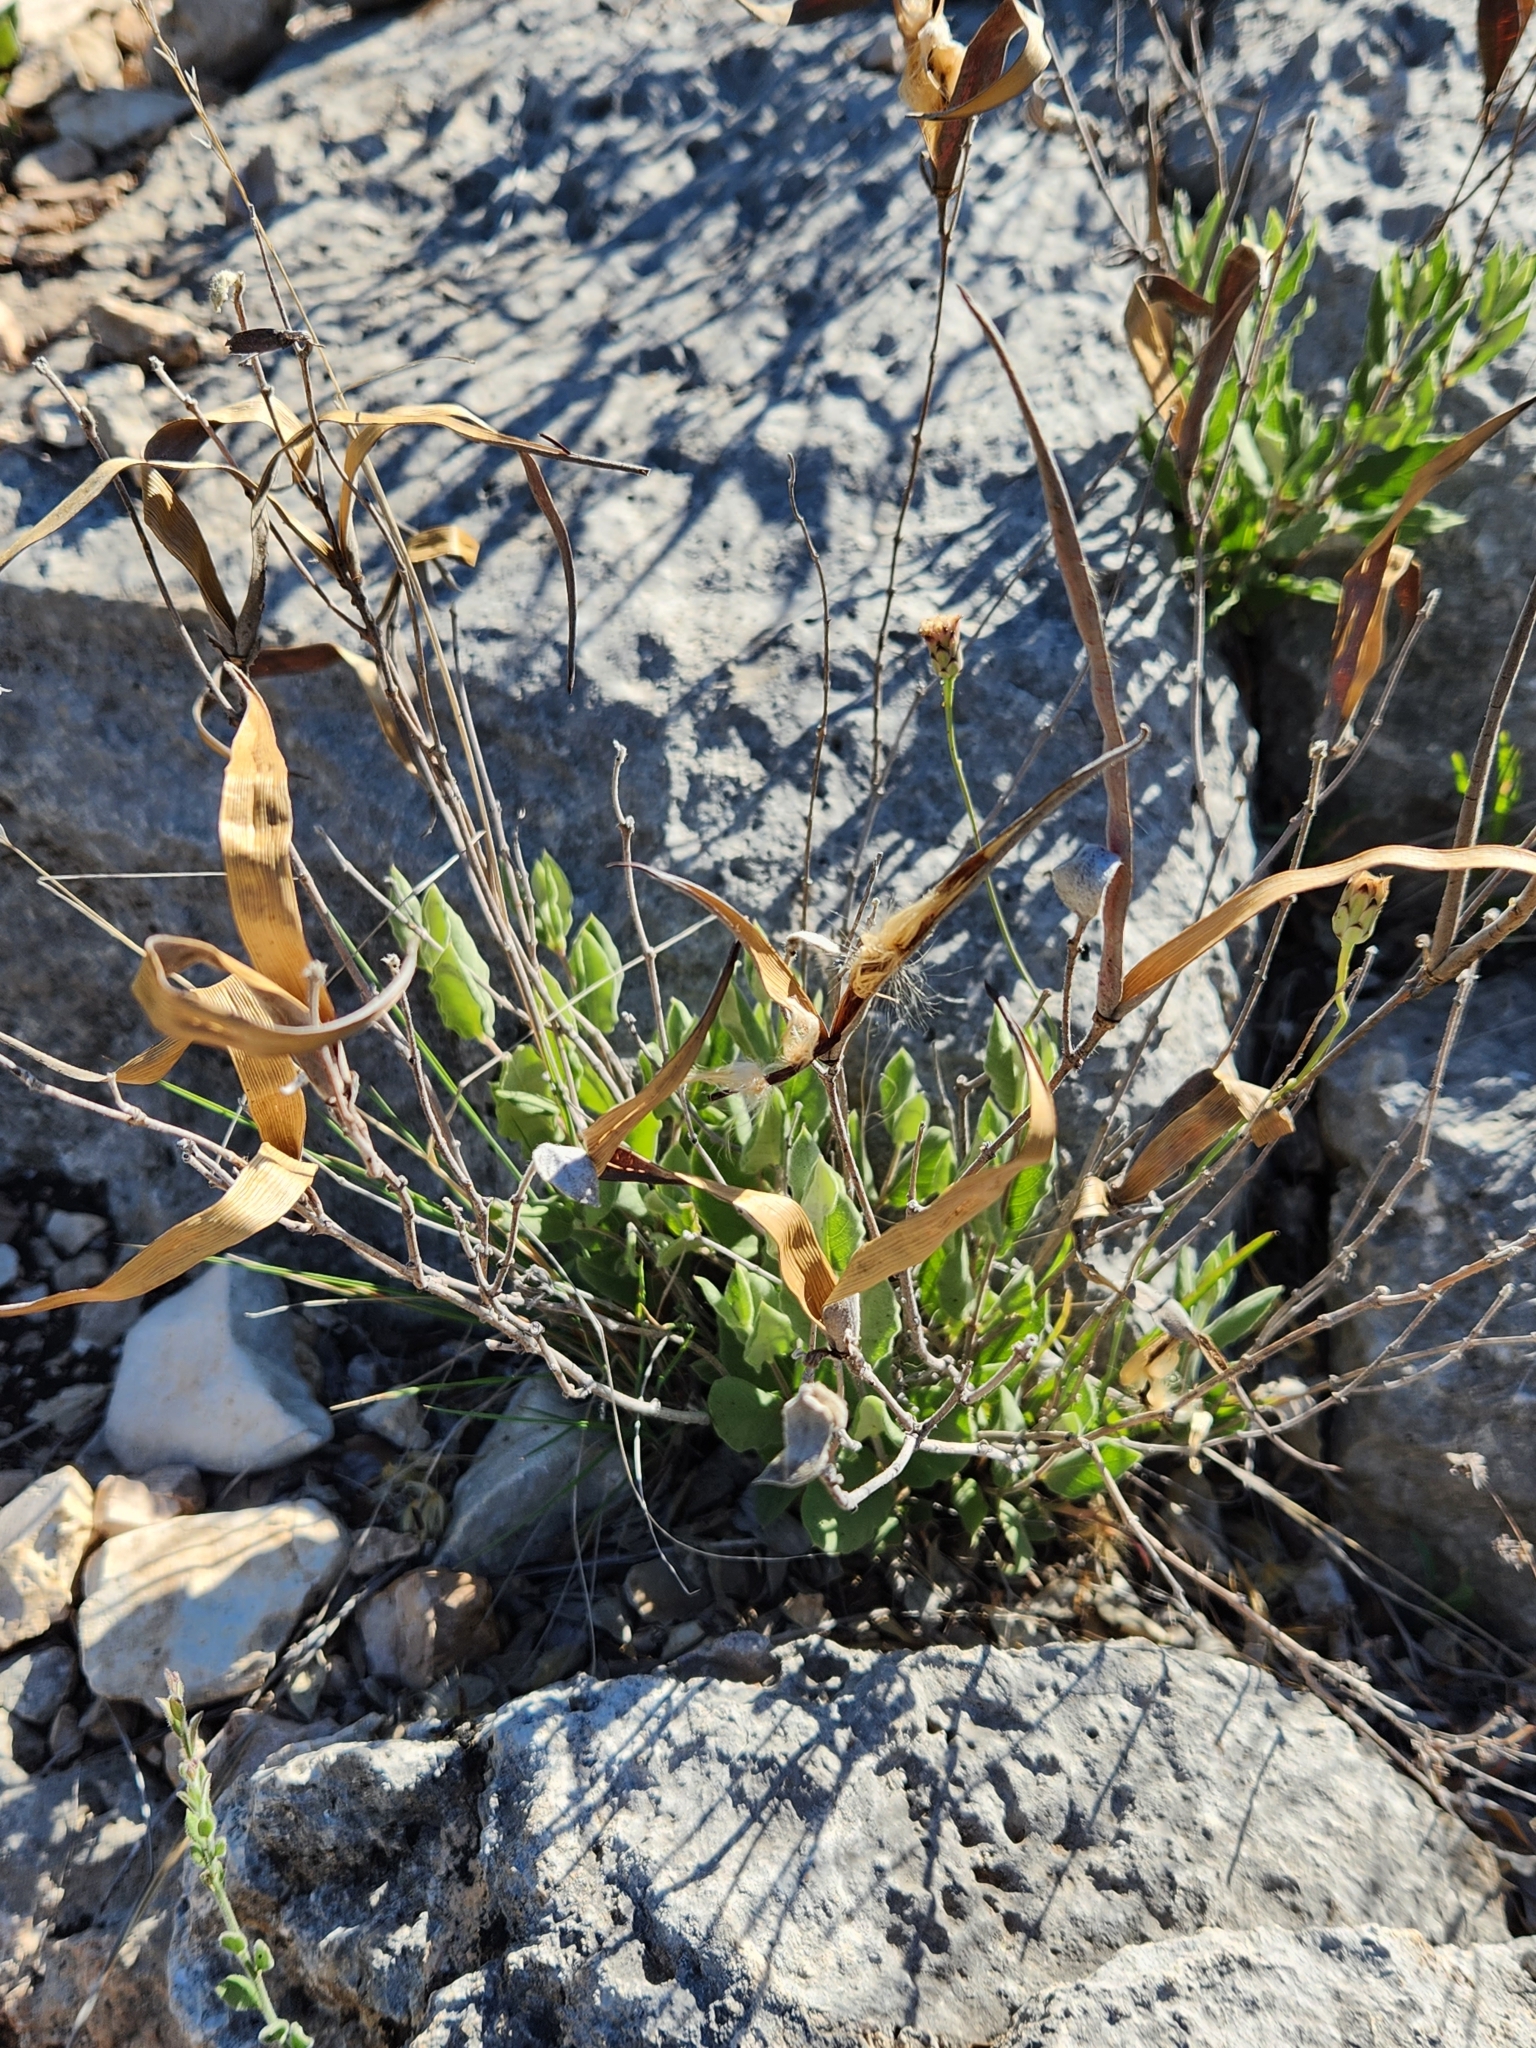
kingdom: Plantae
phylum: Tracheophyta
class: Magnoliopsida
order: Gentianales
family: Apocynaceae
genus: Mandevilla
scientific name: Mandevilla macrosiphon
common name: Plateau rocktrumpet
